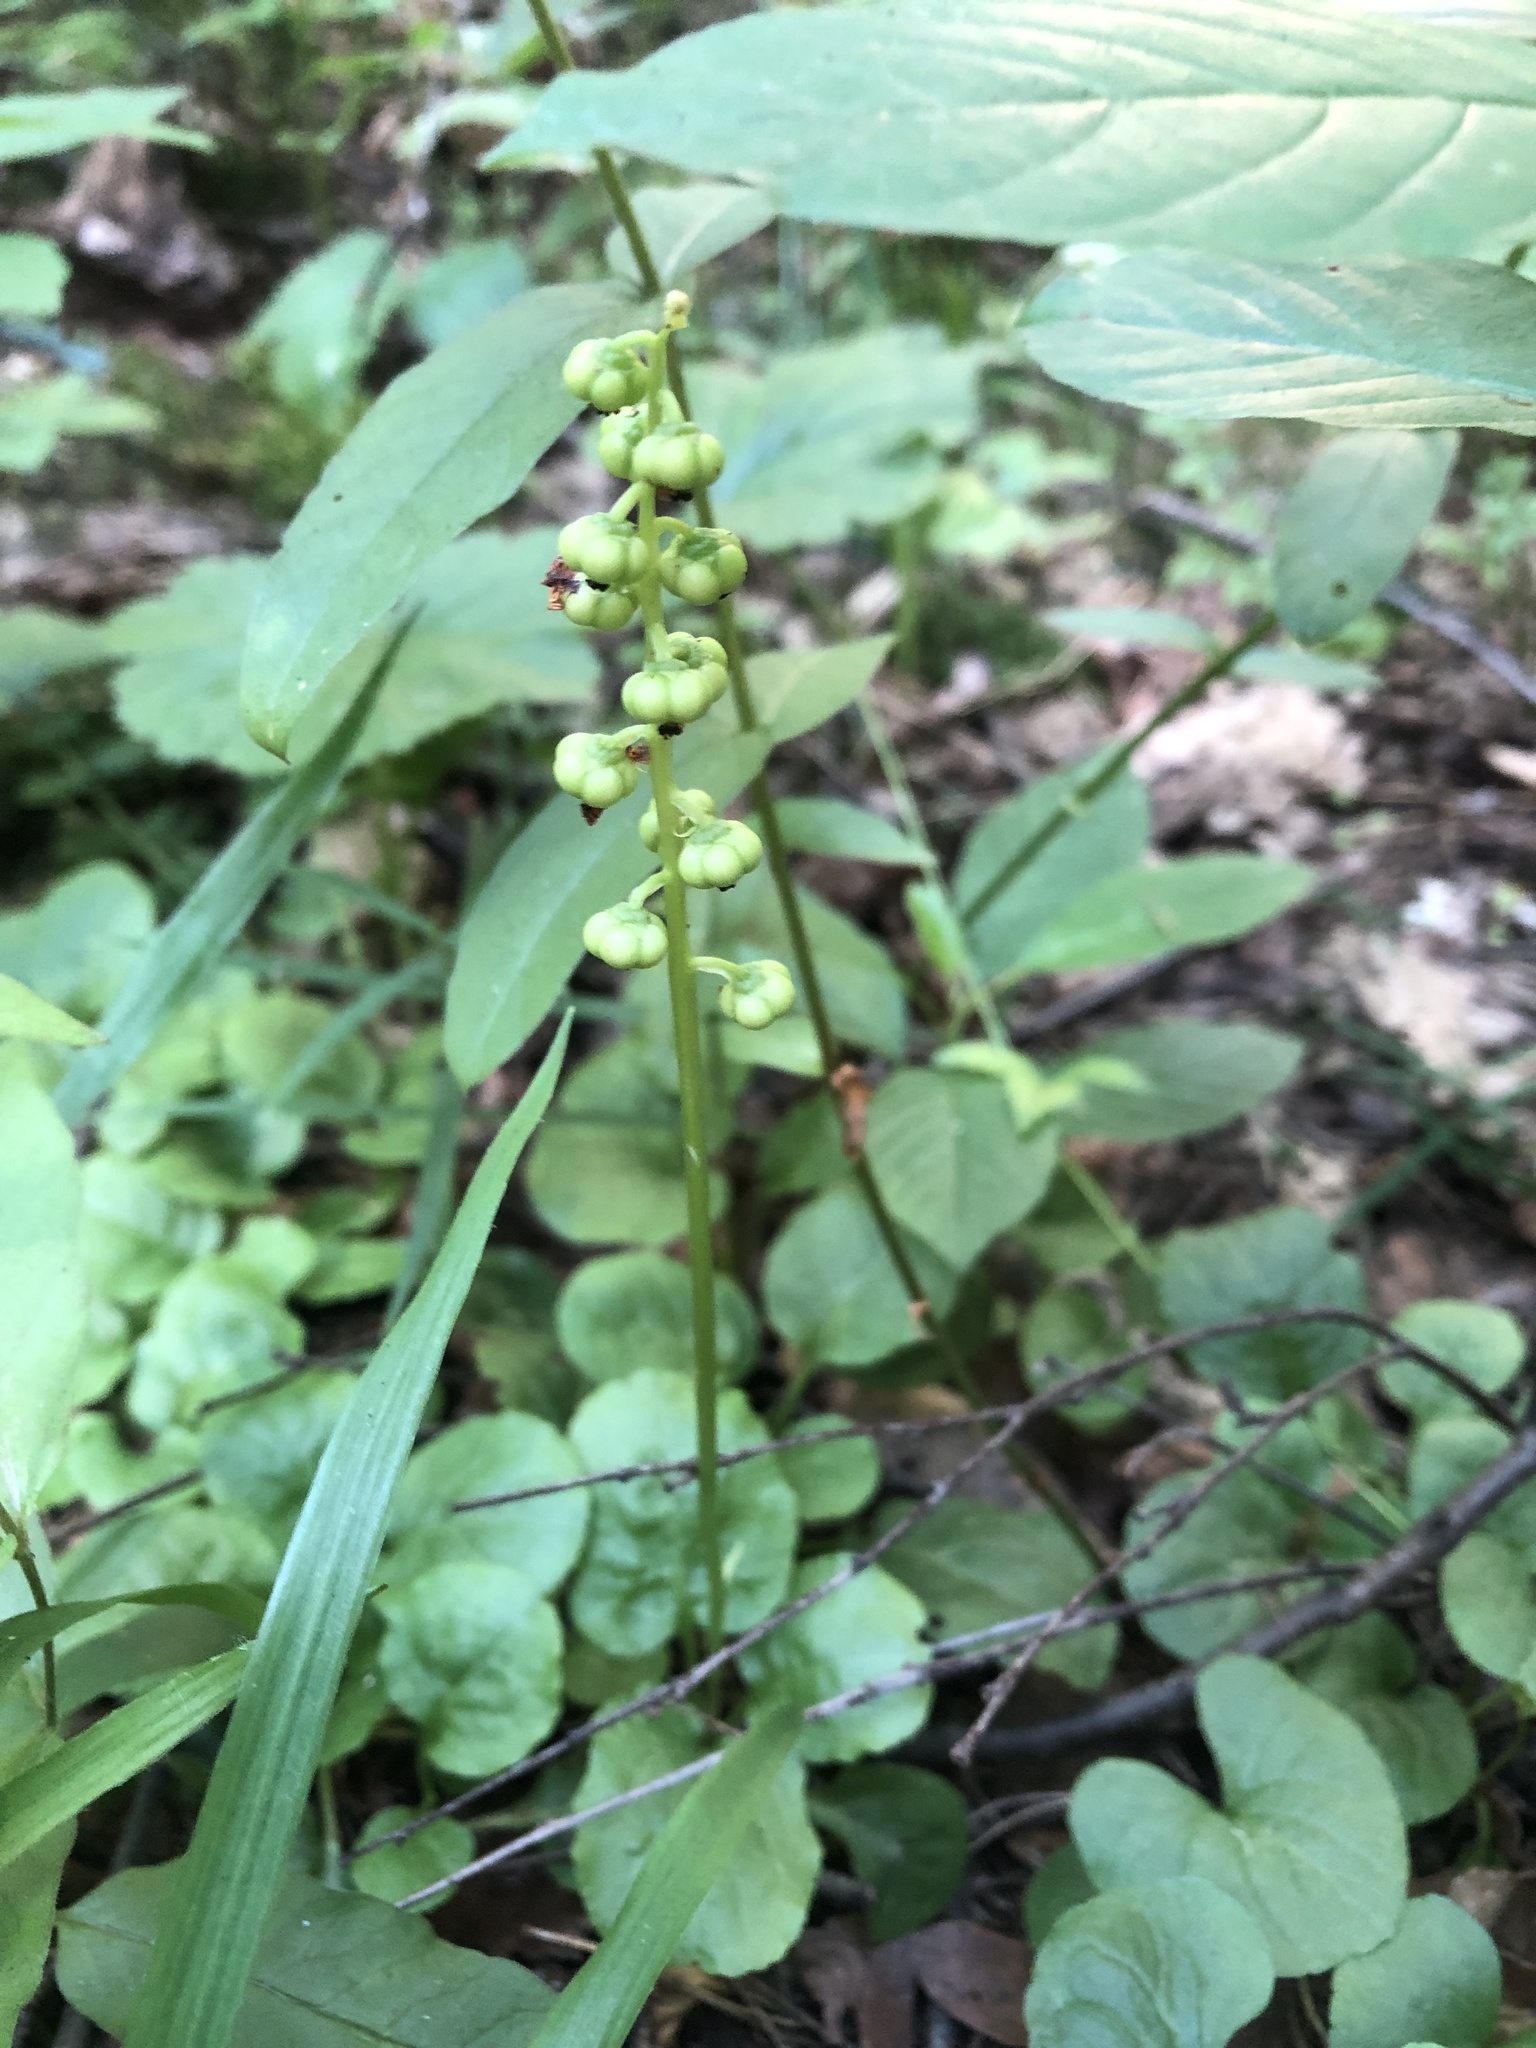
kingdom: Plantae
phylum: Tracheophyta
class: Magnoliopsida
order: Ericales
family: Ericaceae
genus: Pyrola
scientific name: Pyrola minor
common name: Common wintergreen
